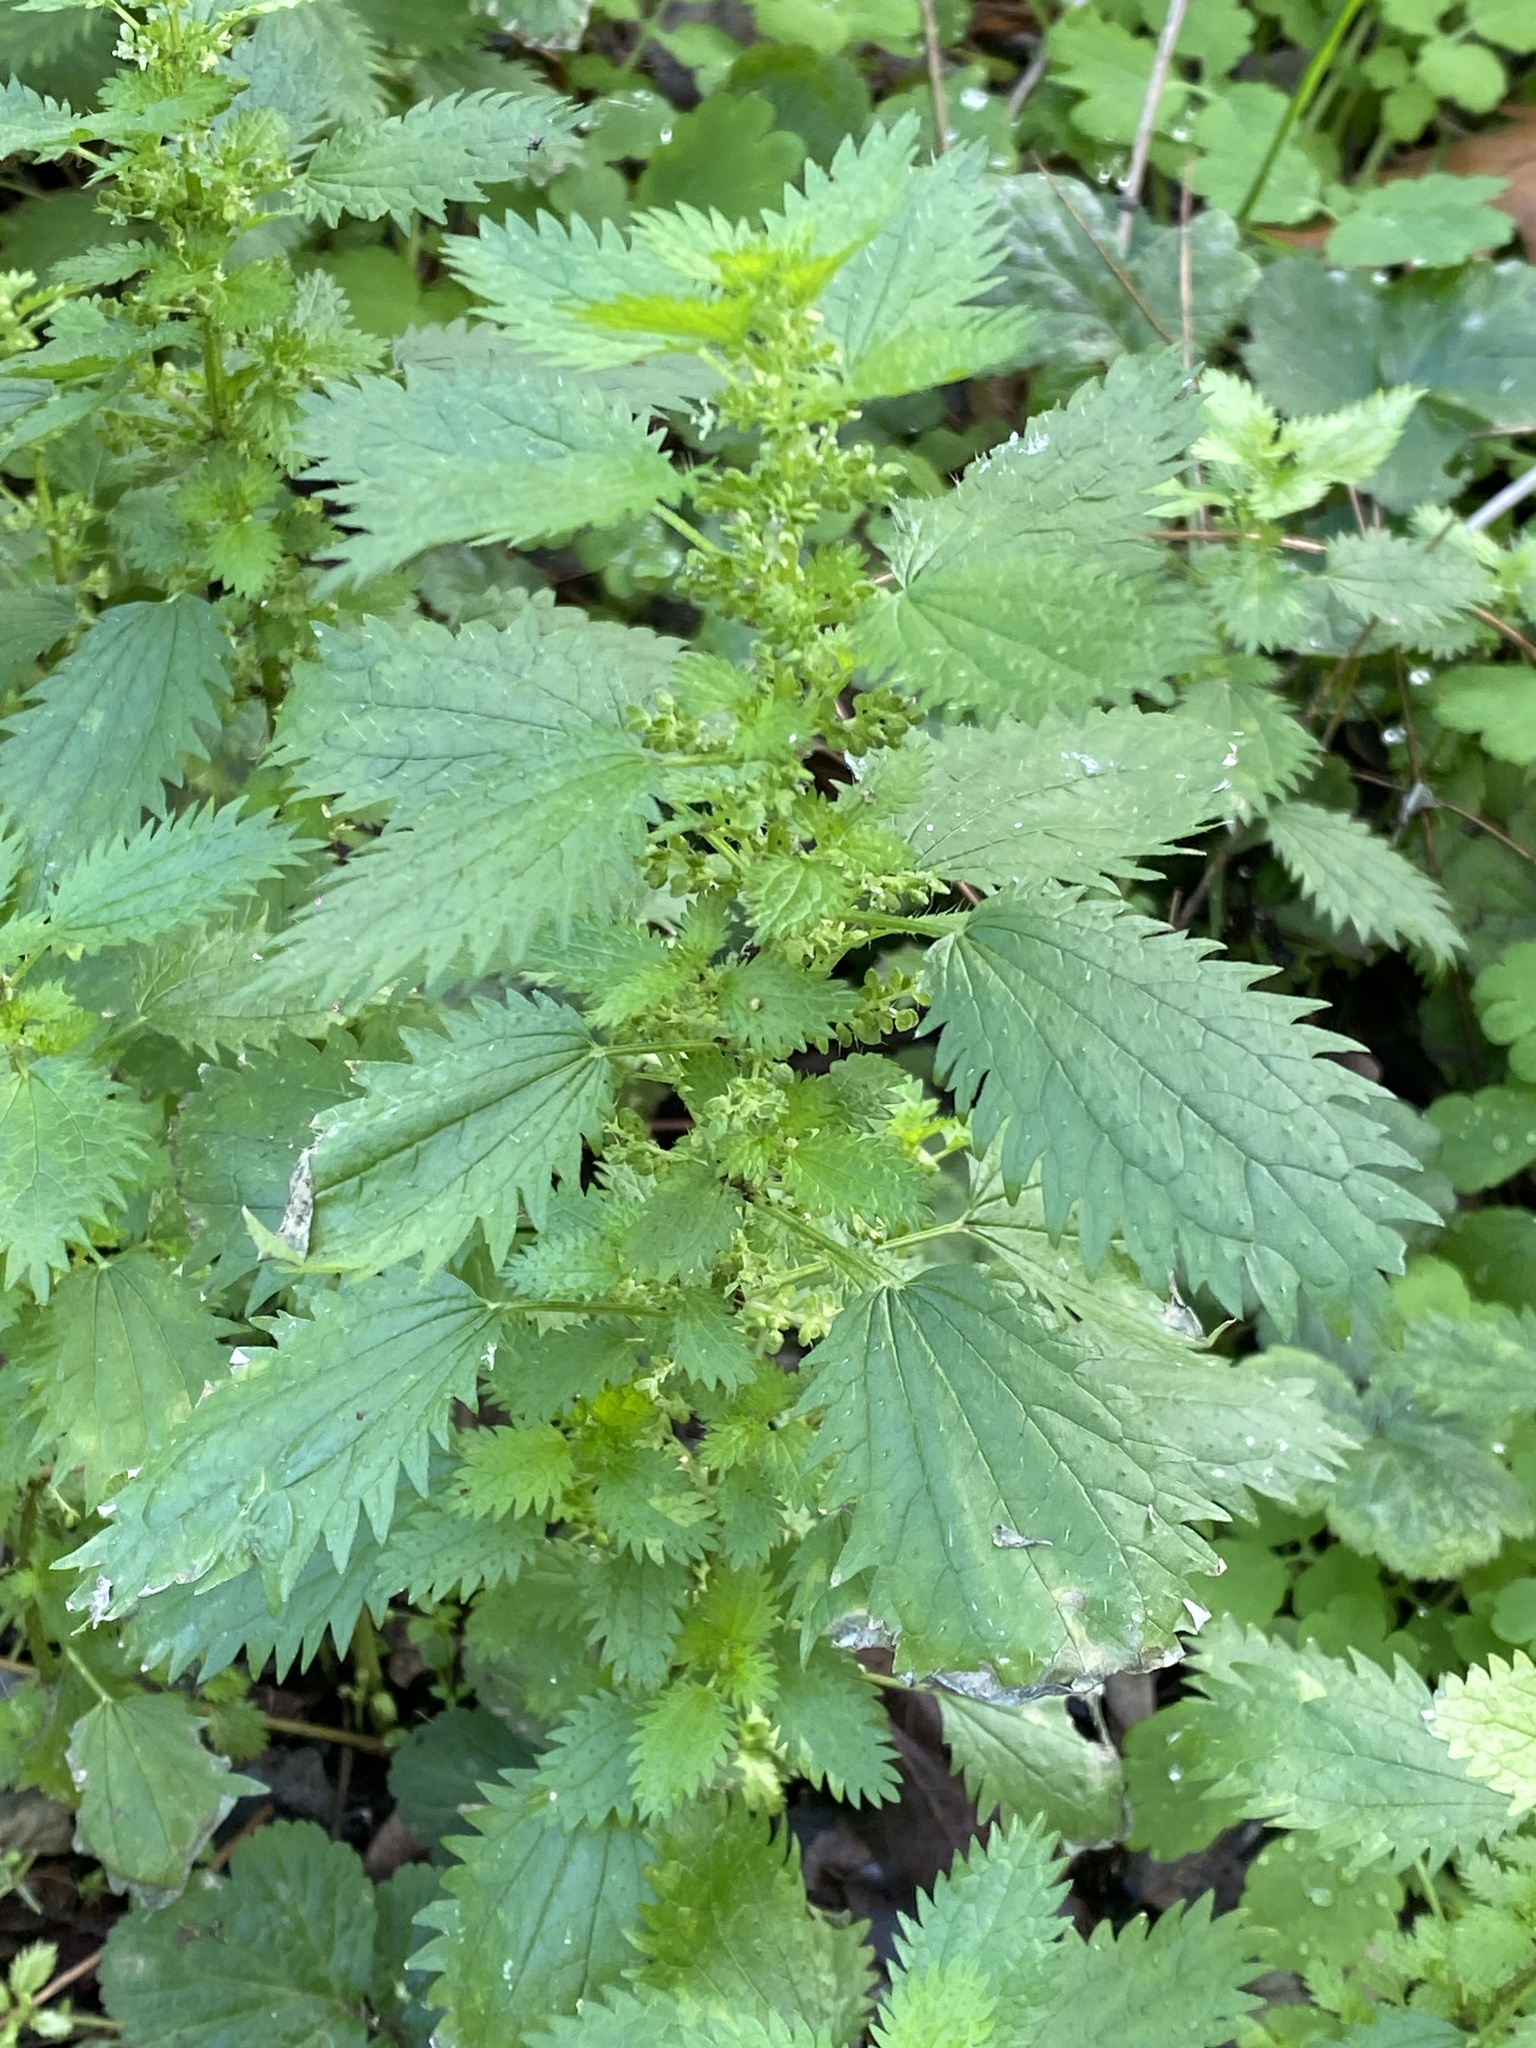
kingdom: Plantae
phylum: Tracheophyta
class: Magnoliopsida
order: Rosales
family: Urticaceae
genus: Urtica
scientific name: Urtica urens
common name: Dwarf nettle
